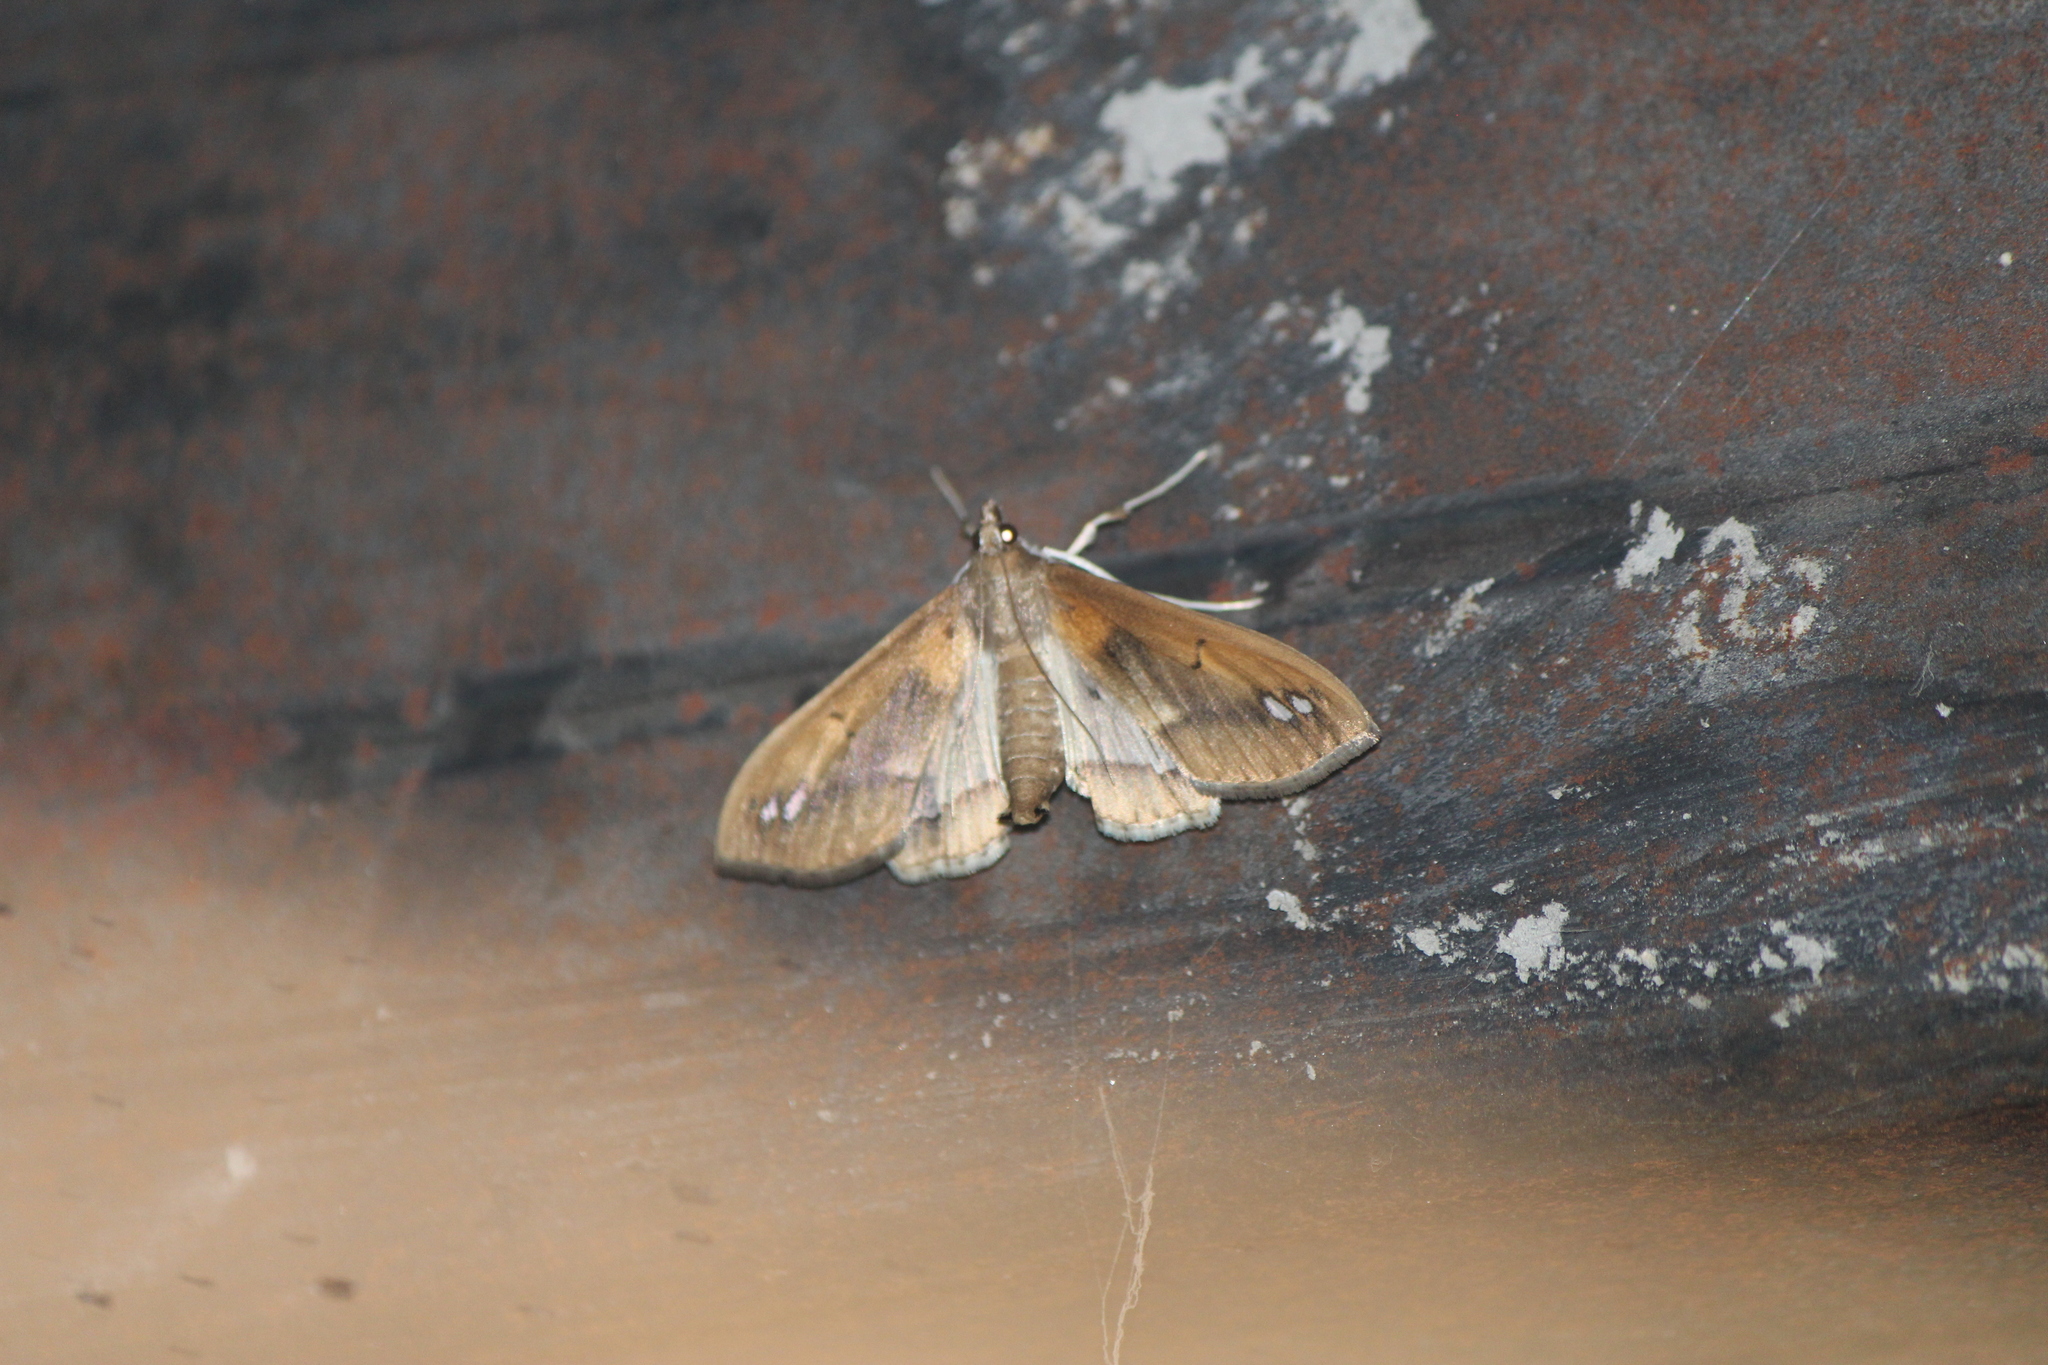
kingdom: Animalia
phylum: Arthropoda
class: Insecta
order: Lepidoptera
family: Crambidae
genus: Diaphania
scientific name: Diaphania
